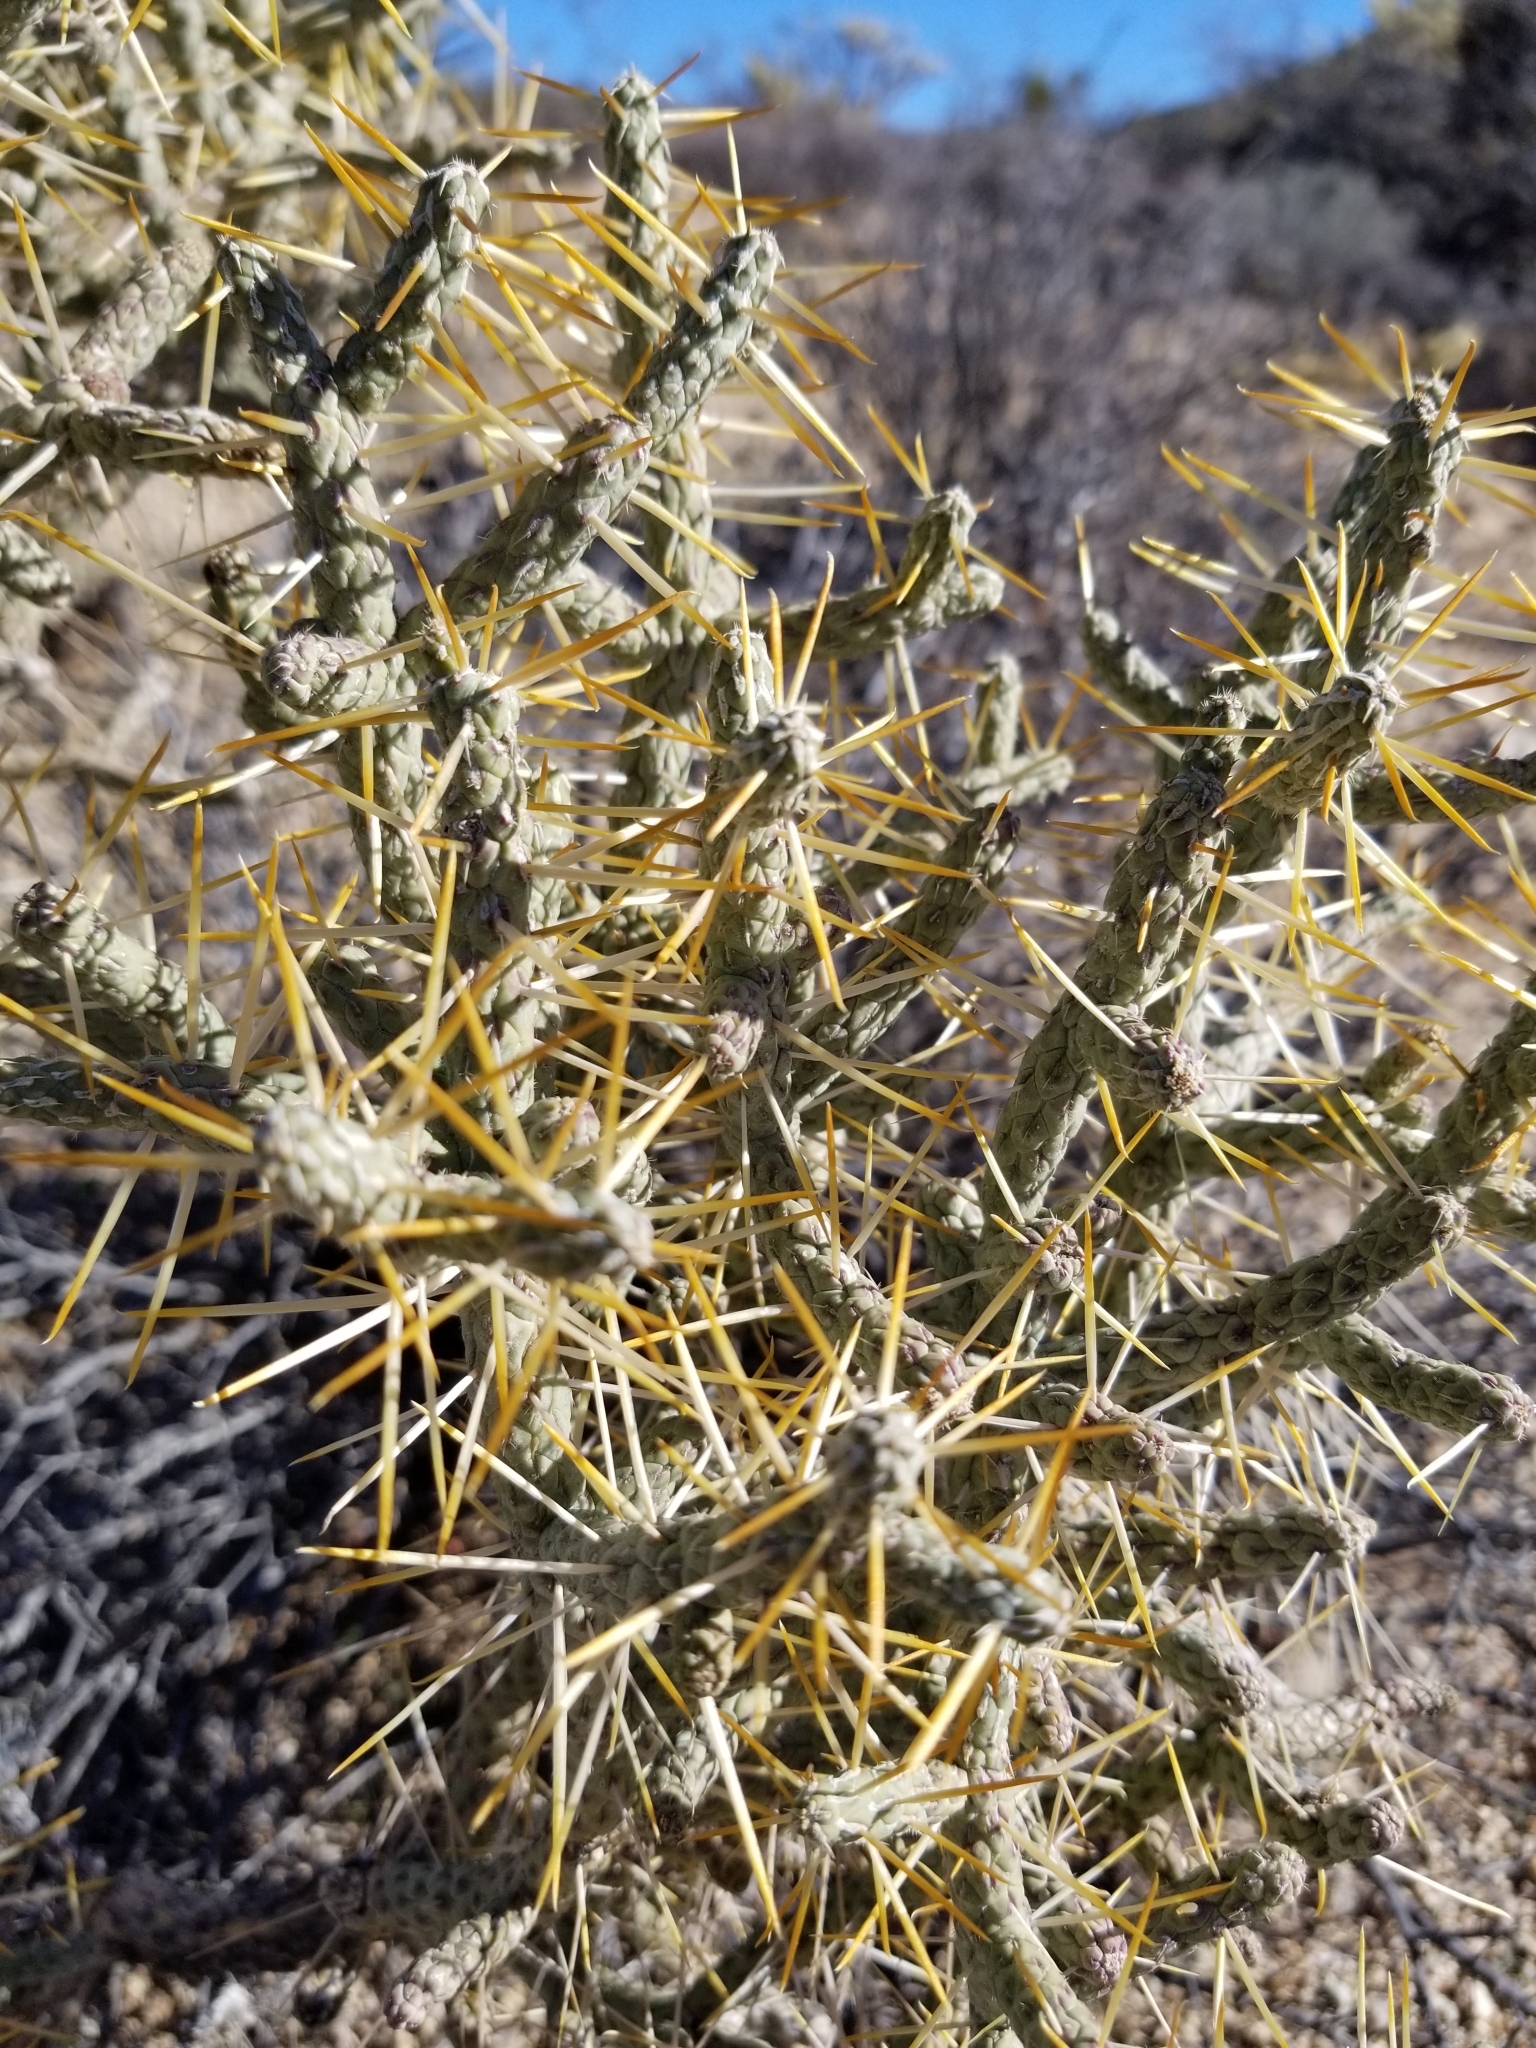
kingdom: Plantae
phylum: Tracheophyta
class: Magnoliopsida
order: Caryophyllales
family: Cactaceae
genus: Cylindropuntia
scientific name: Cylindropuntia ramosissima
